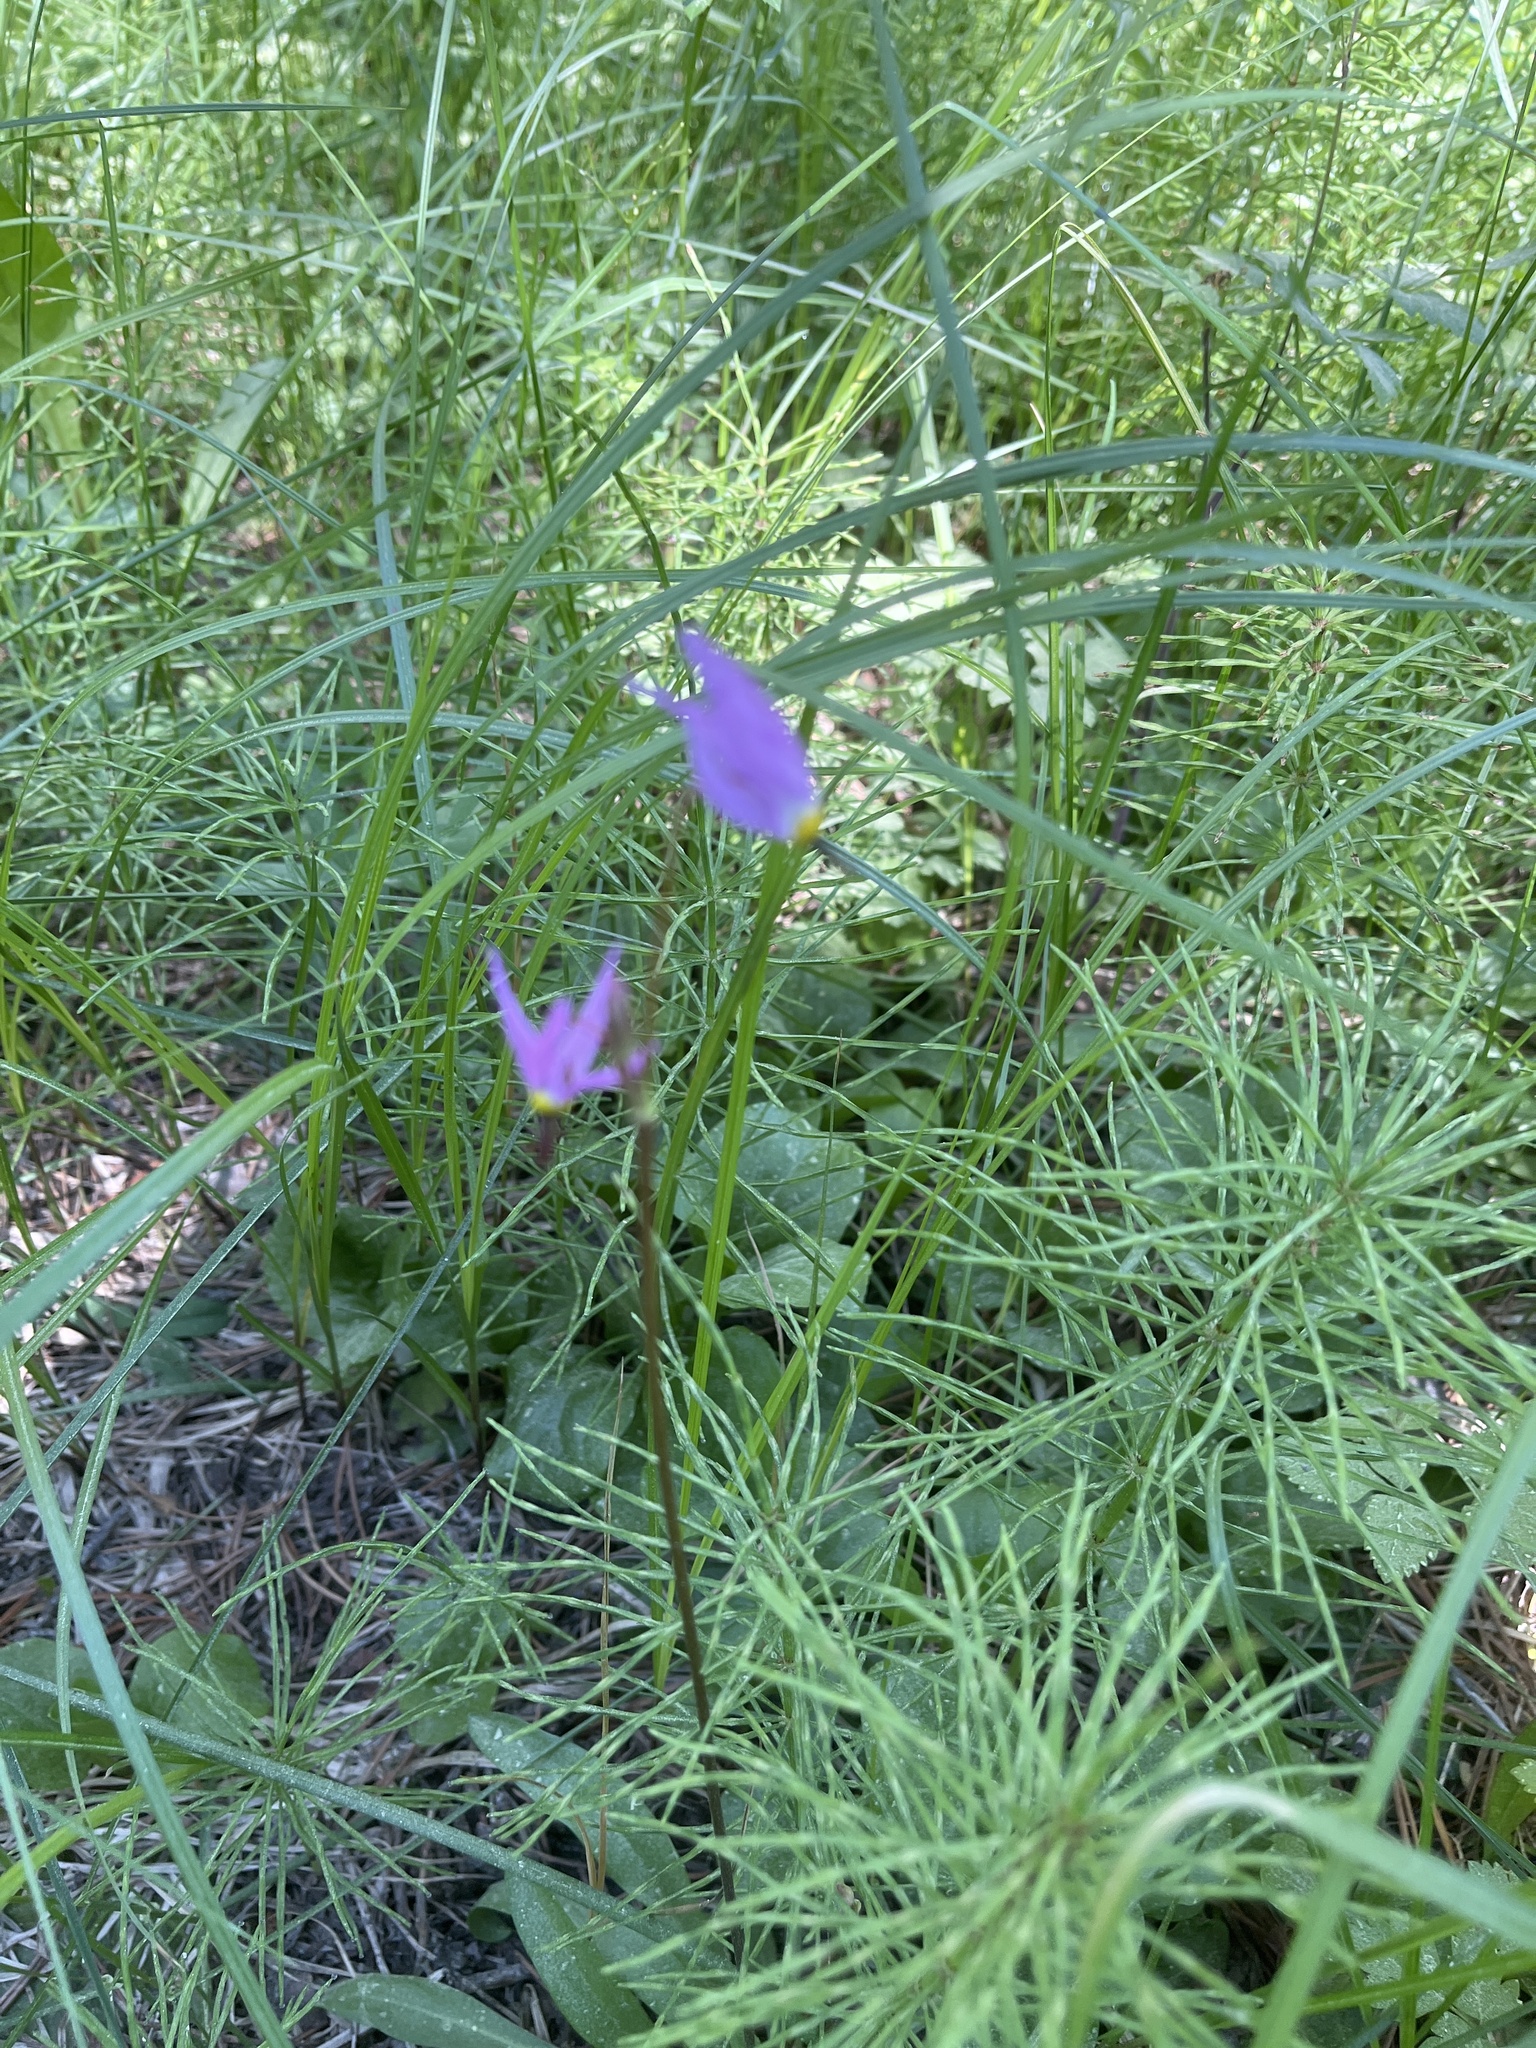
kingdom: Plantae
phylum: Tracheophyta
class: Magnoliopsida
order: Ericales
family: Primulaceae
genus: Dodecatheon
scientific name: Dodecatheon alpinum
